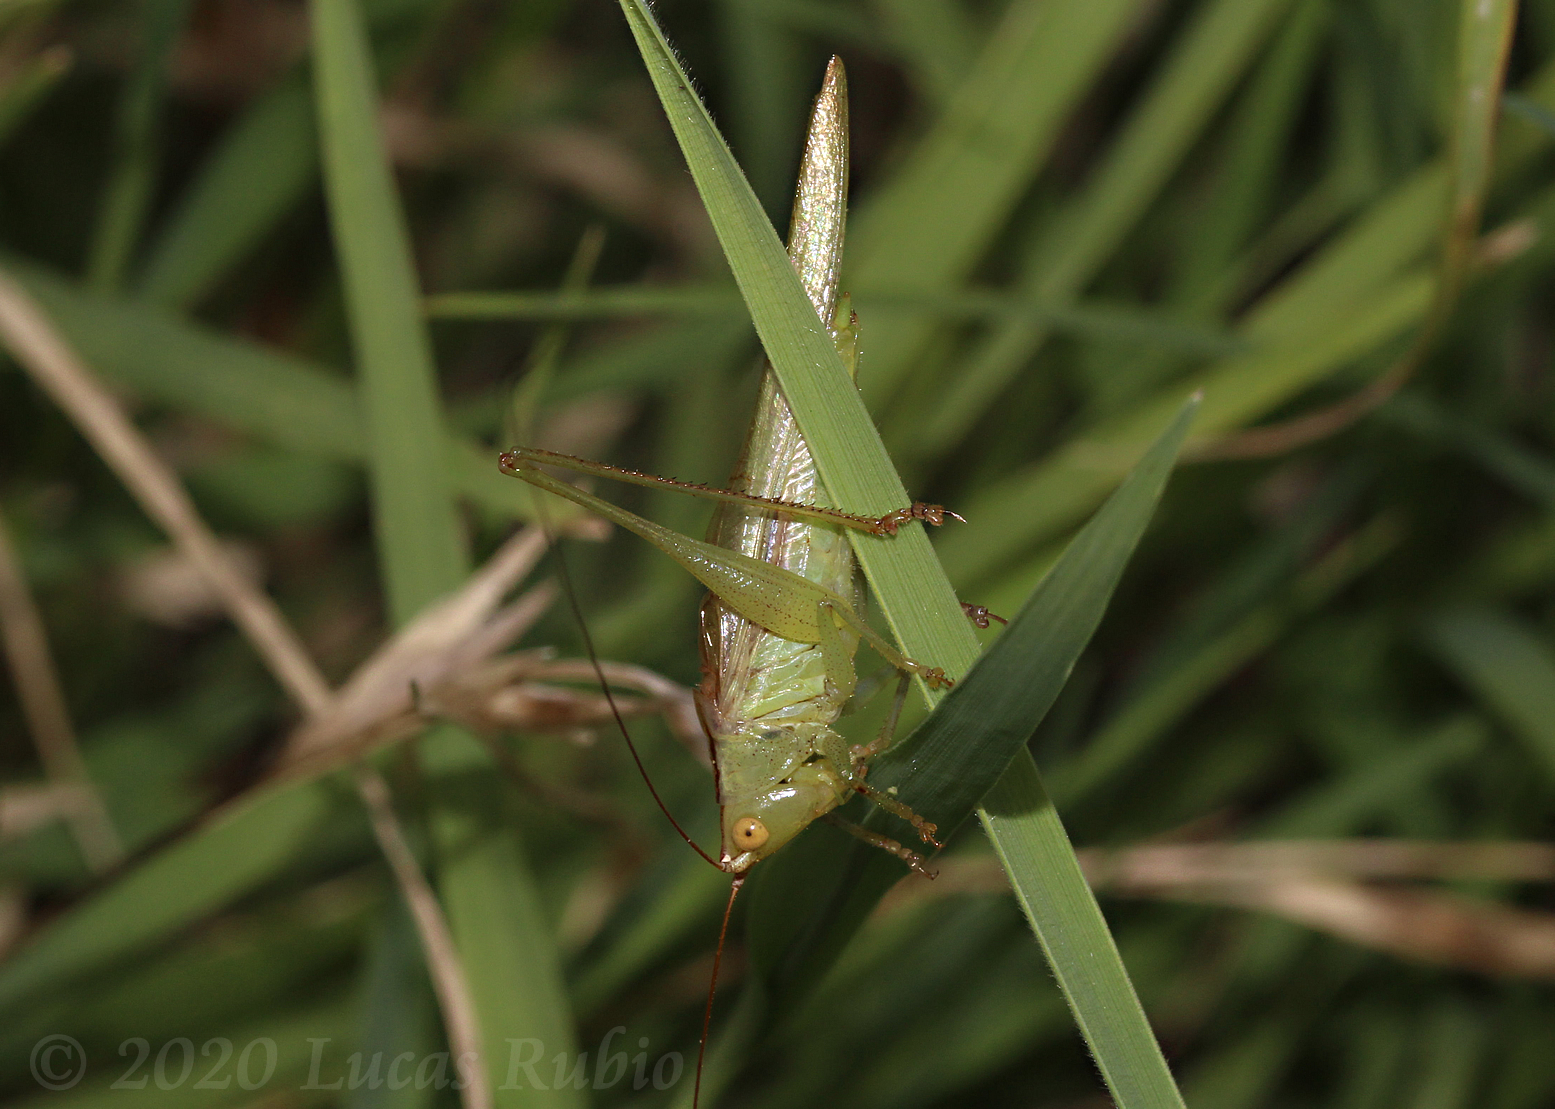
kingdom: Animalia
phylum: Arthropoda
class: Insecta
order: Orthoptera
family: Tettigoniidae
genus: Conocephalus
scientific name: Conocephalus longipes
